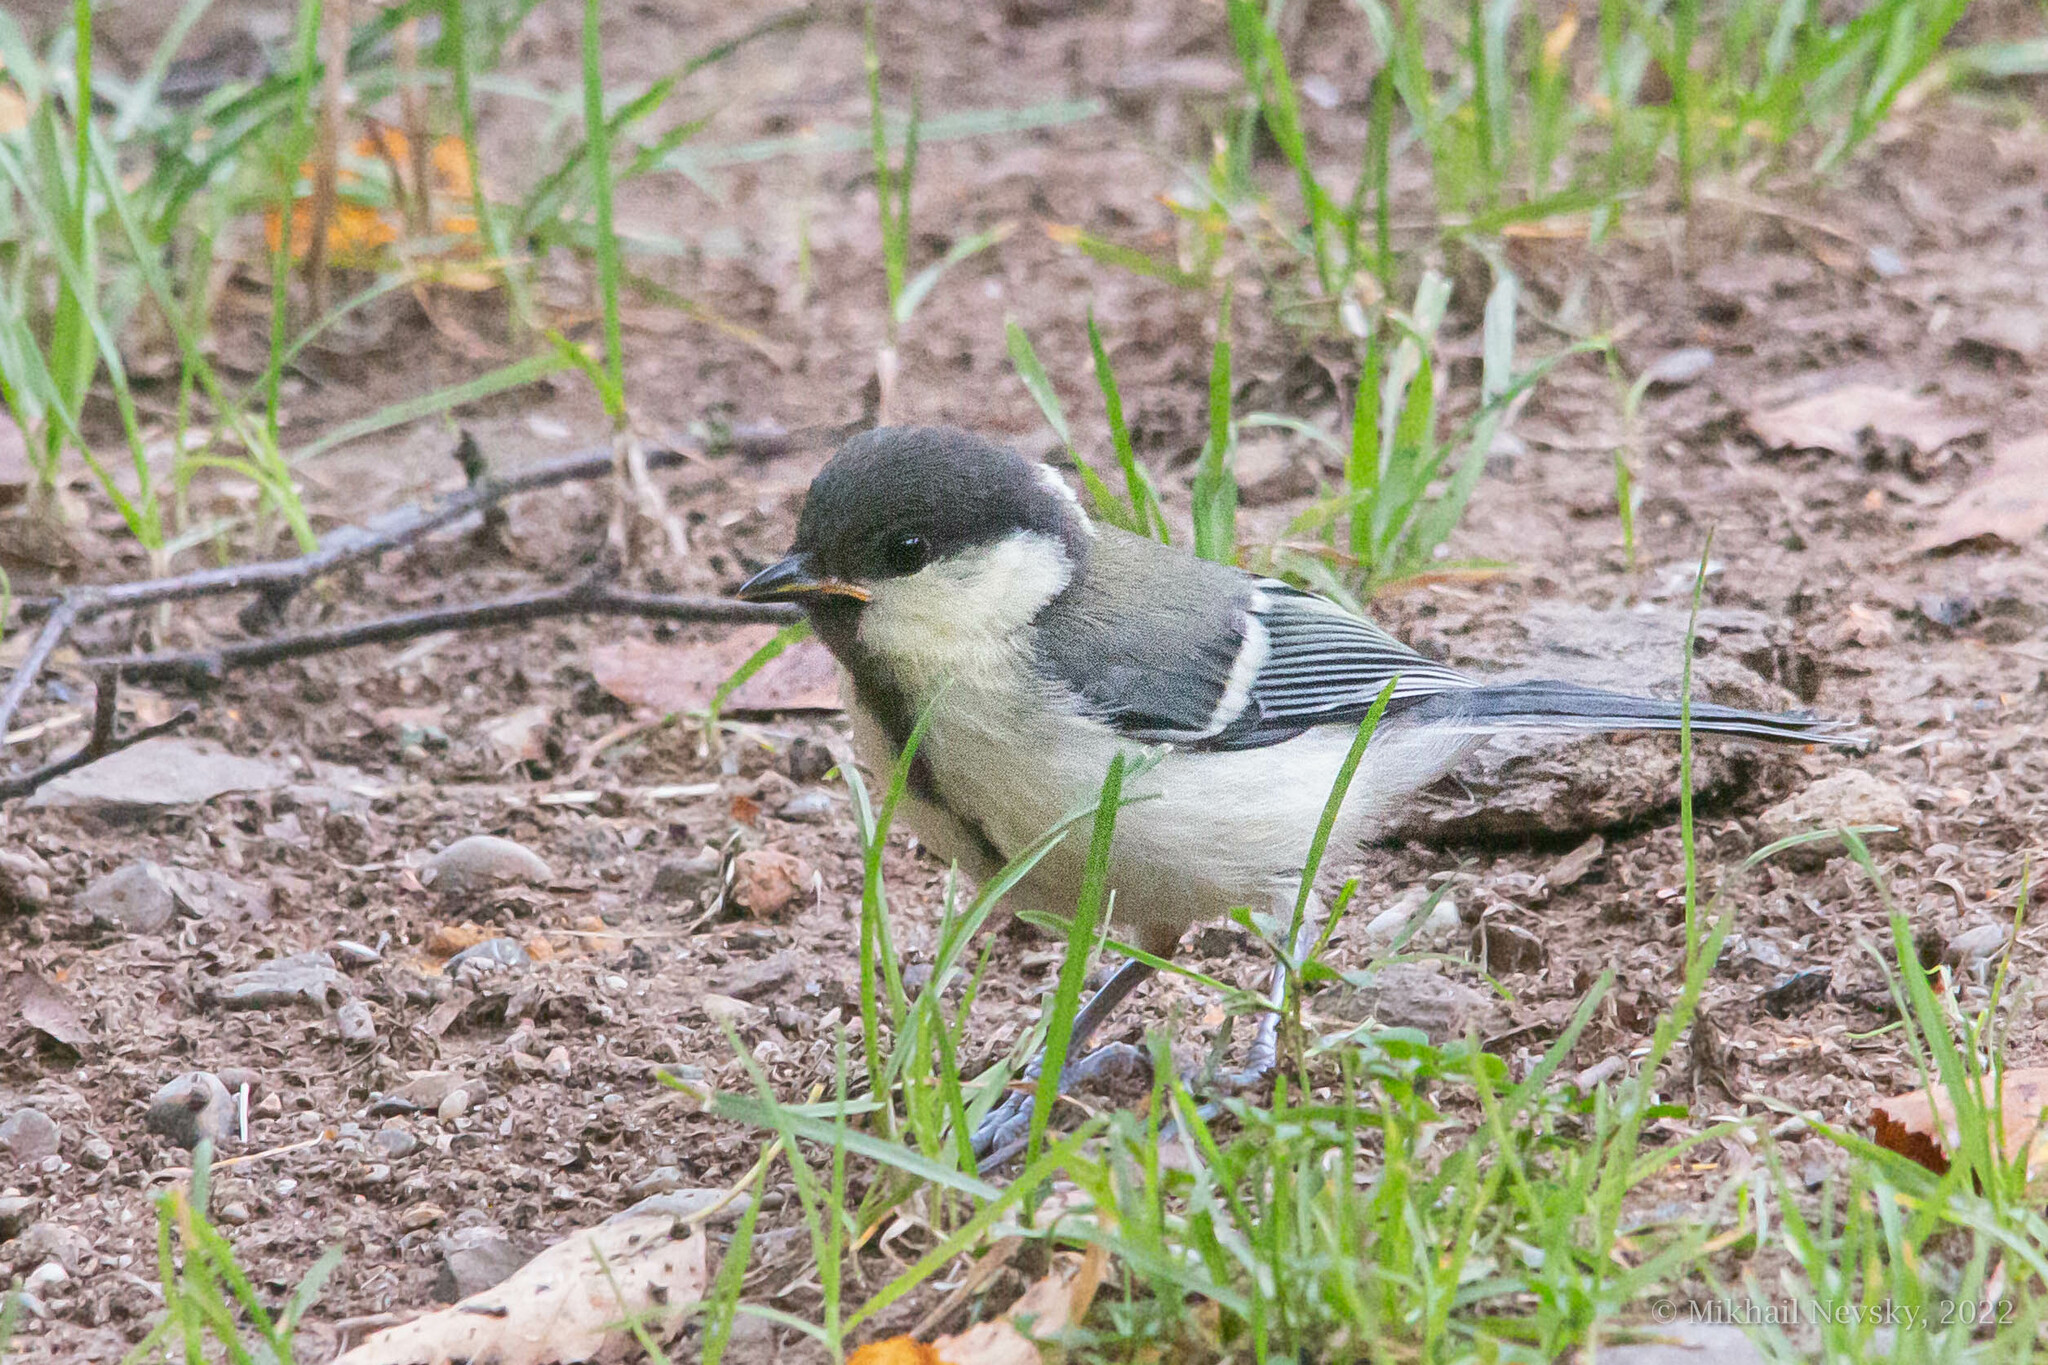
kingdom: Animalia
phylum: Chordata
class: Aves
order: Passeriformes
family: Paridae
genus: Parus
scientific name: Parus minor
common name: Japanese tit
